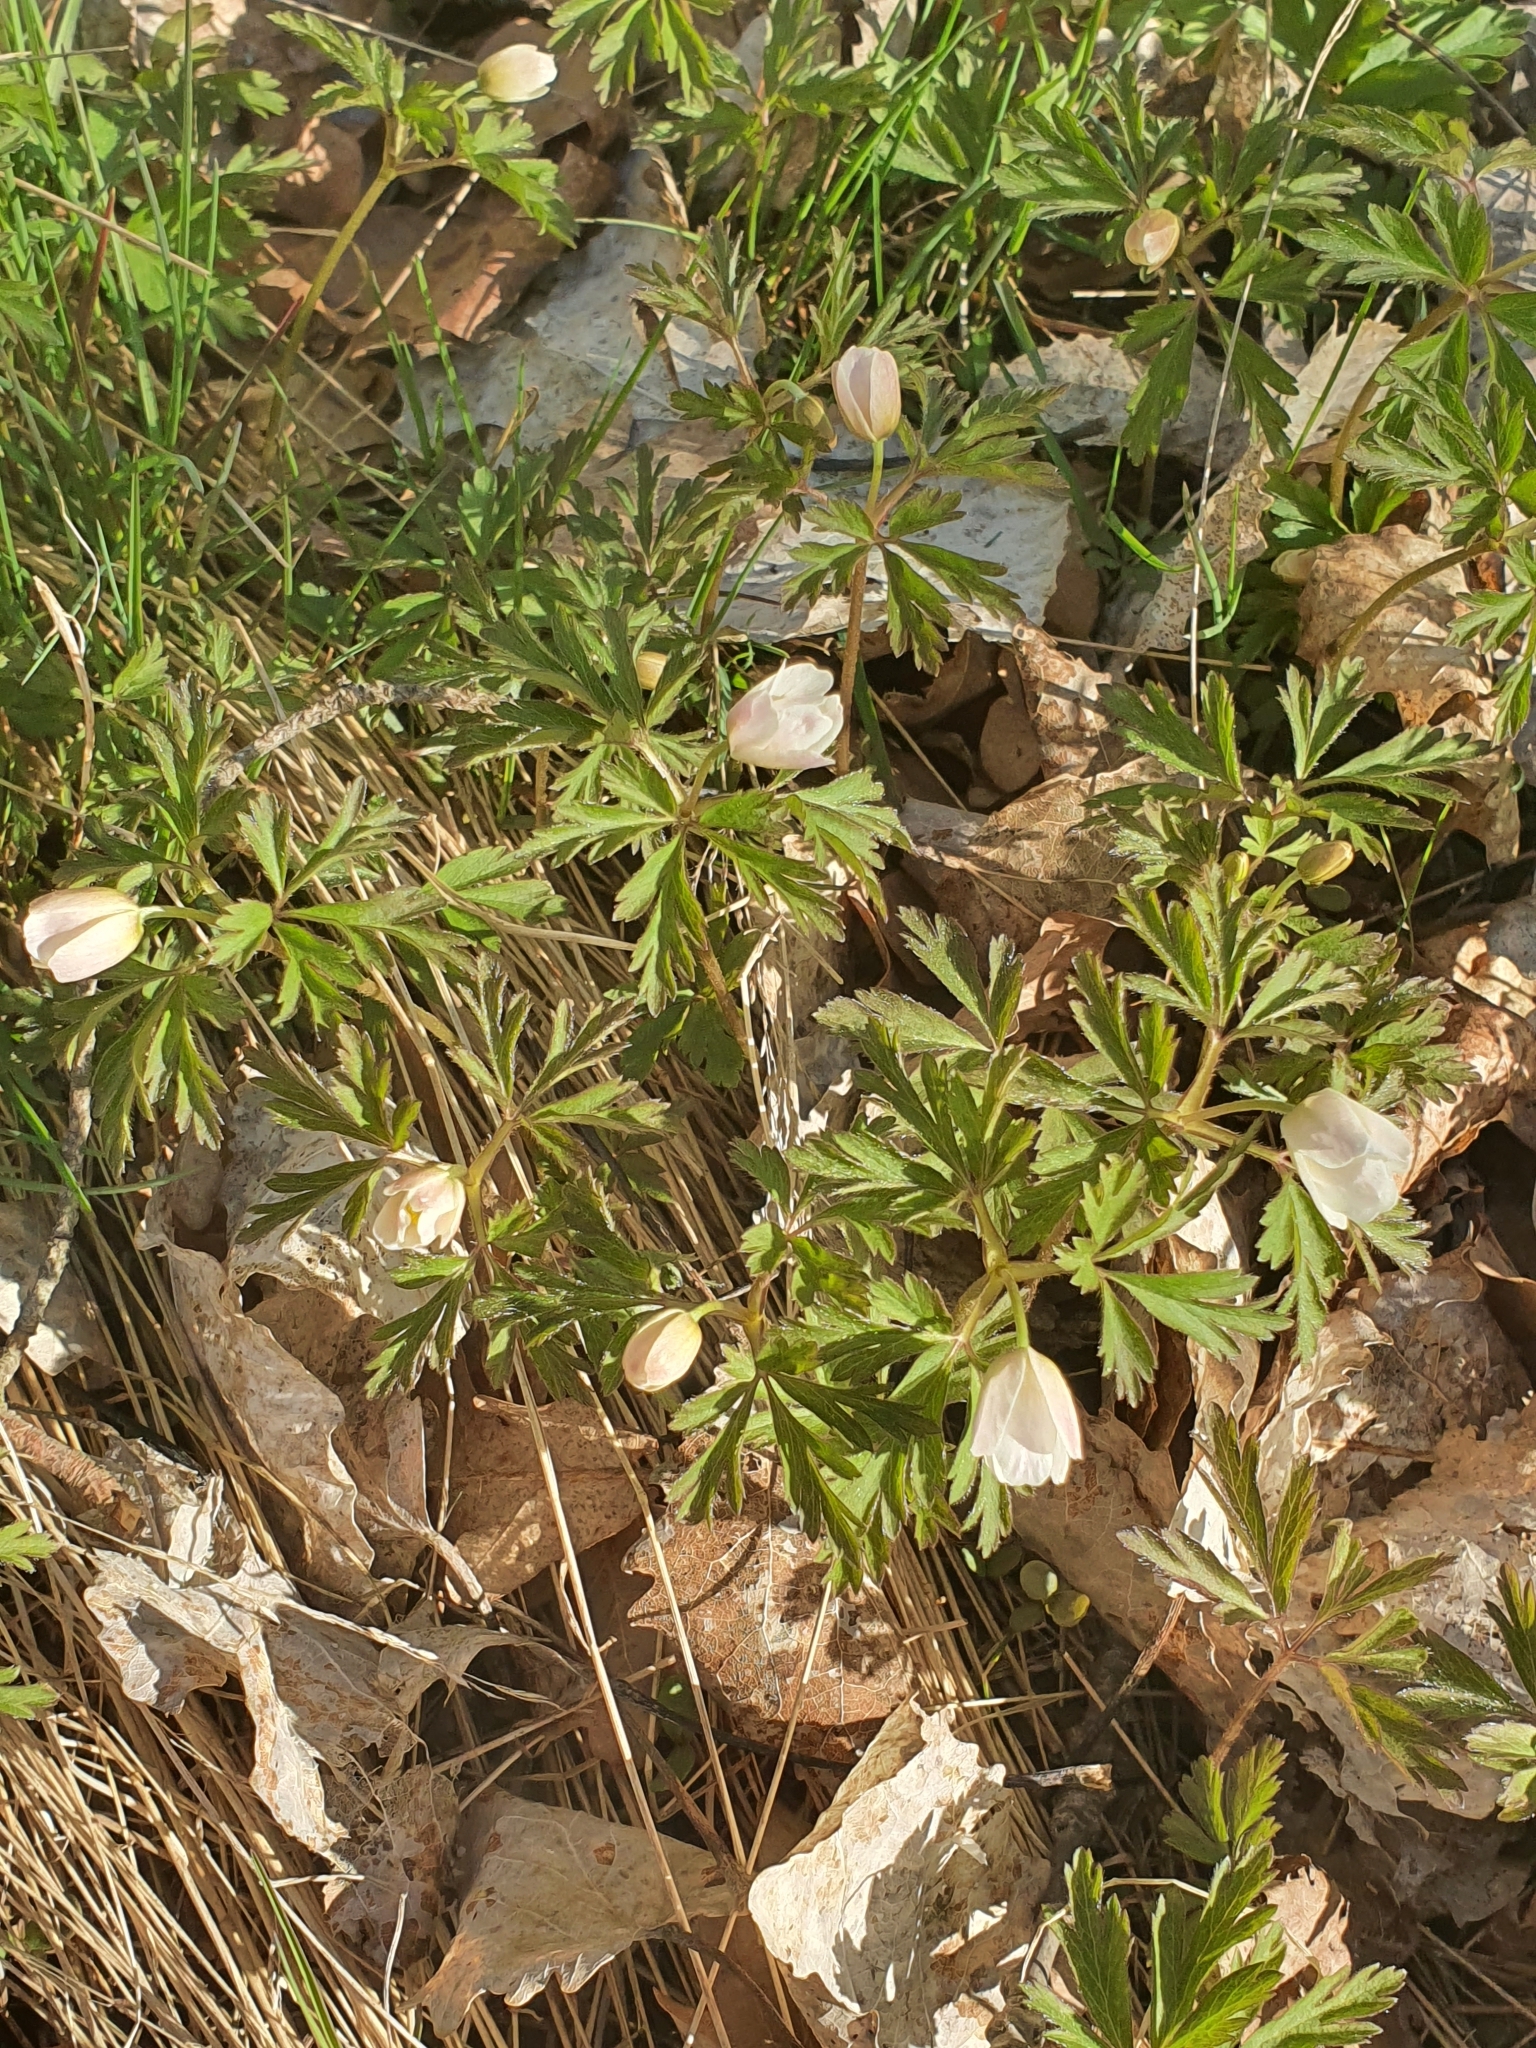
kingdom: Plantae
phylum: Tracheophyta
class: Magnoliopsida
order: Ranunculales
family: Ranunculaceae
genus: Anemone
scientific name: Anemone nemorosa
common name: Wood anemone
